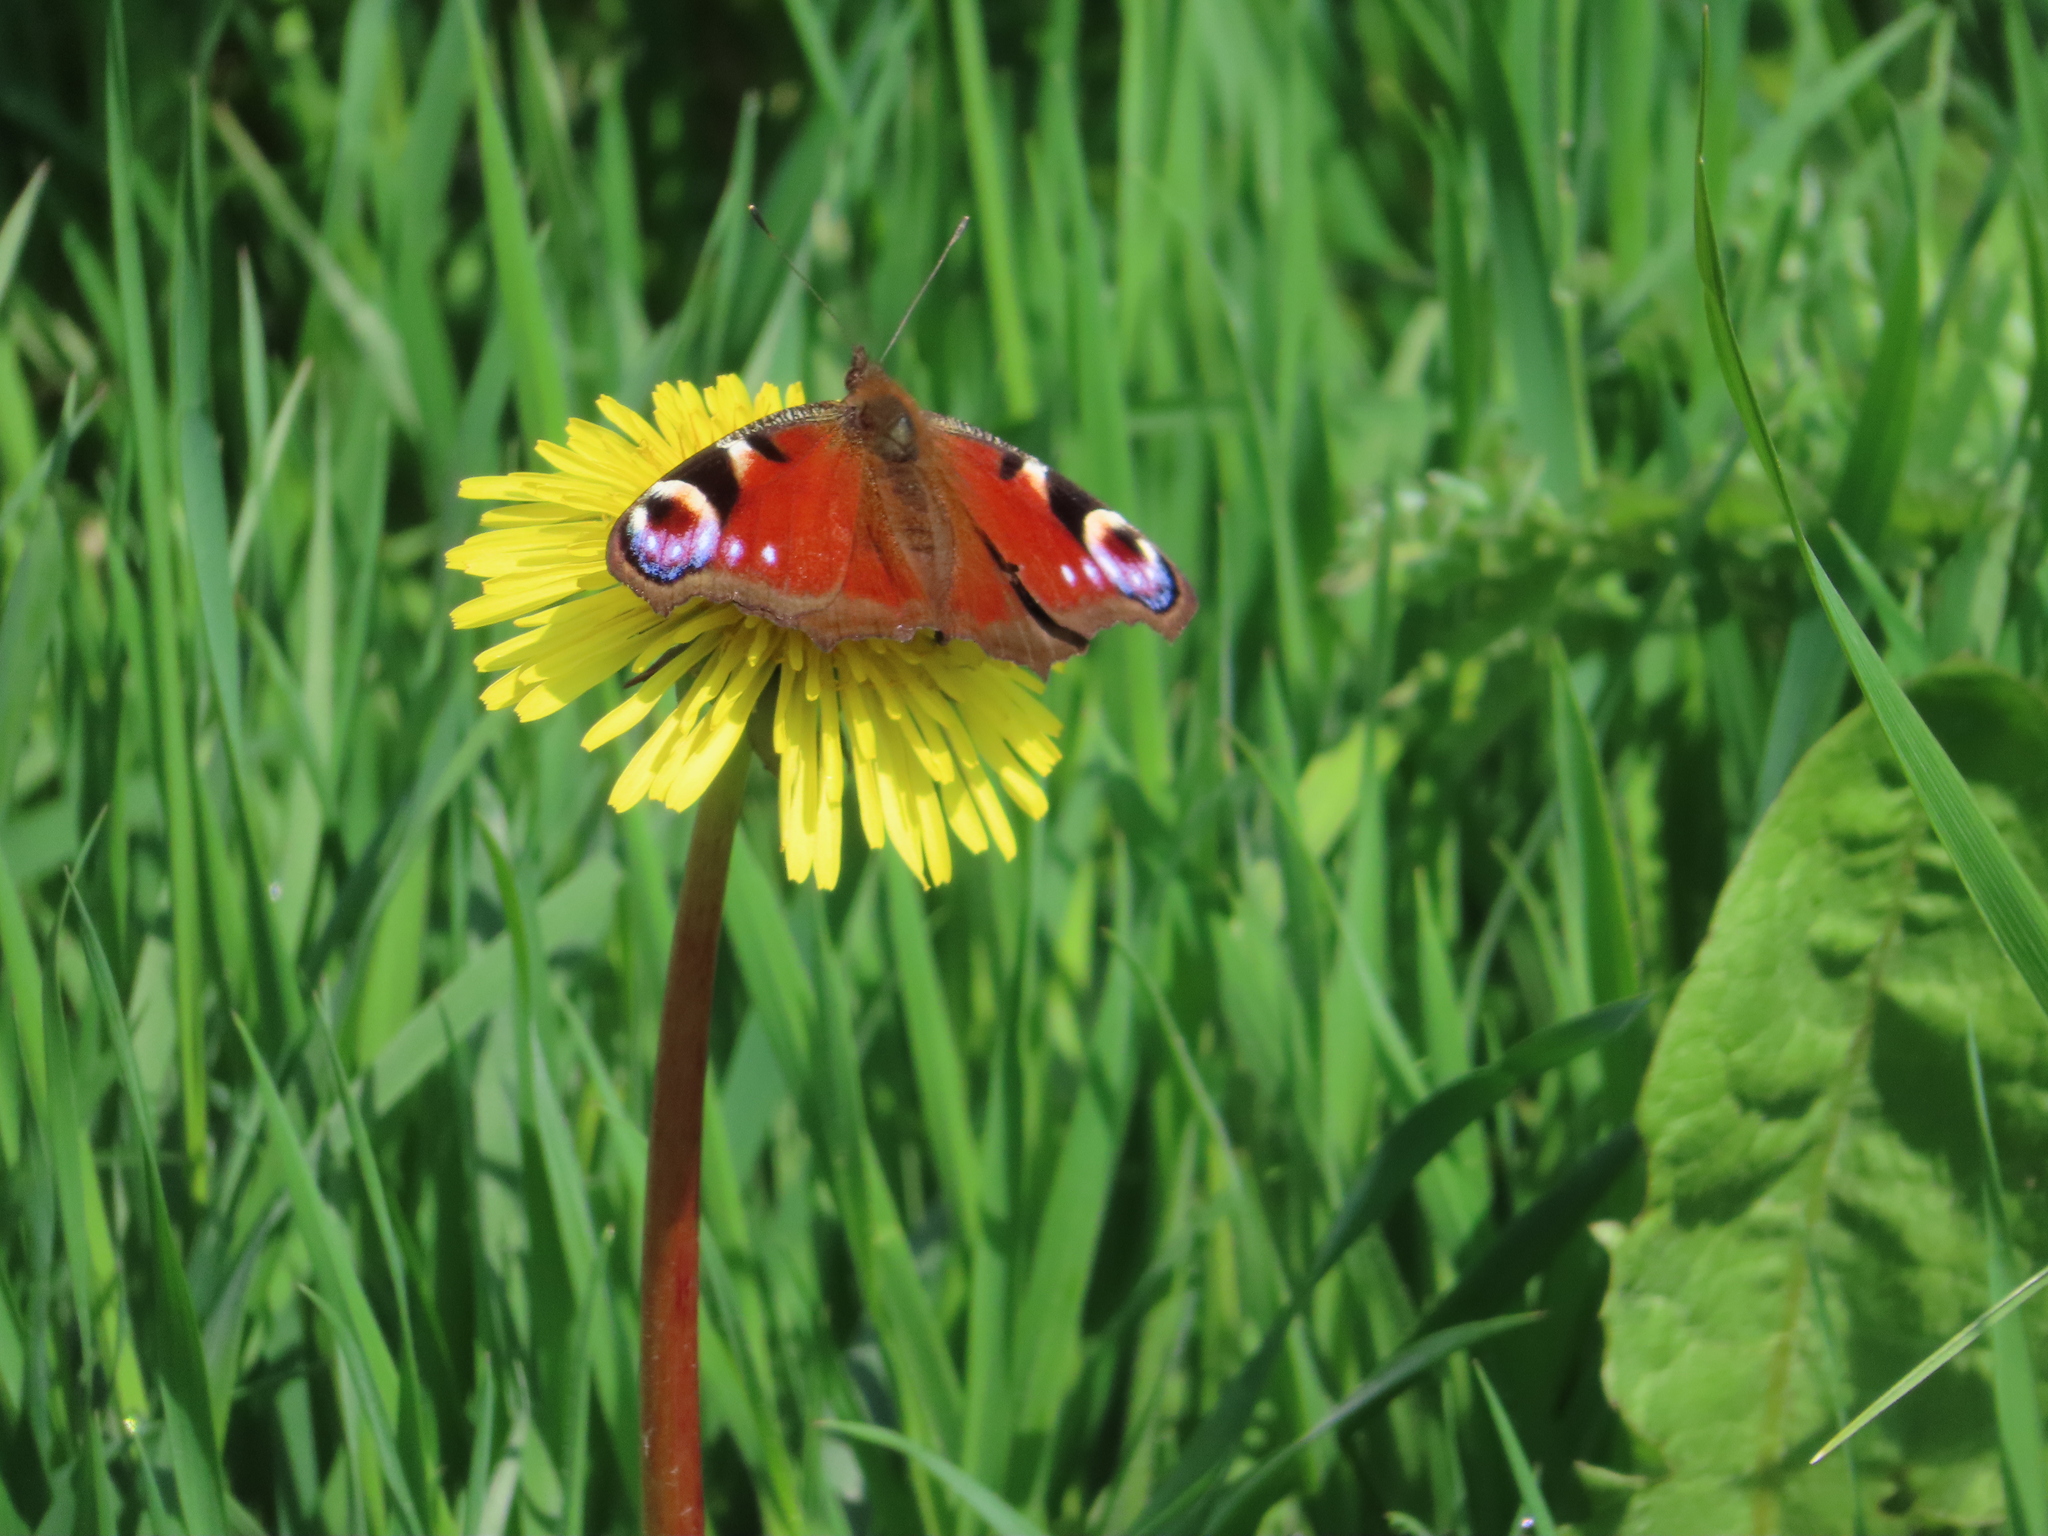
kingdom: Animalia
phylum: Arthropoda
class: Insecta
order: Lepidoptera
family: Nymphalidae
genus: Aglais
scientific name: Aglais io
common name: Peacock
